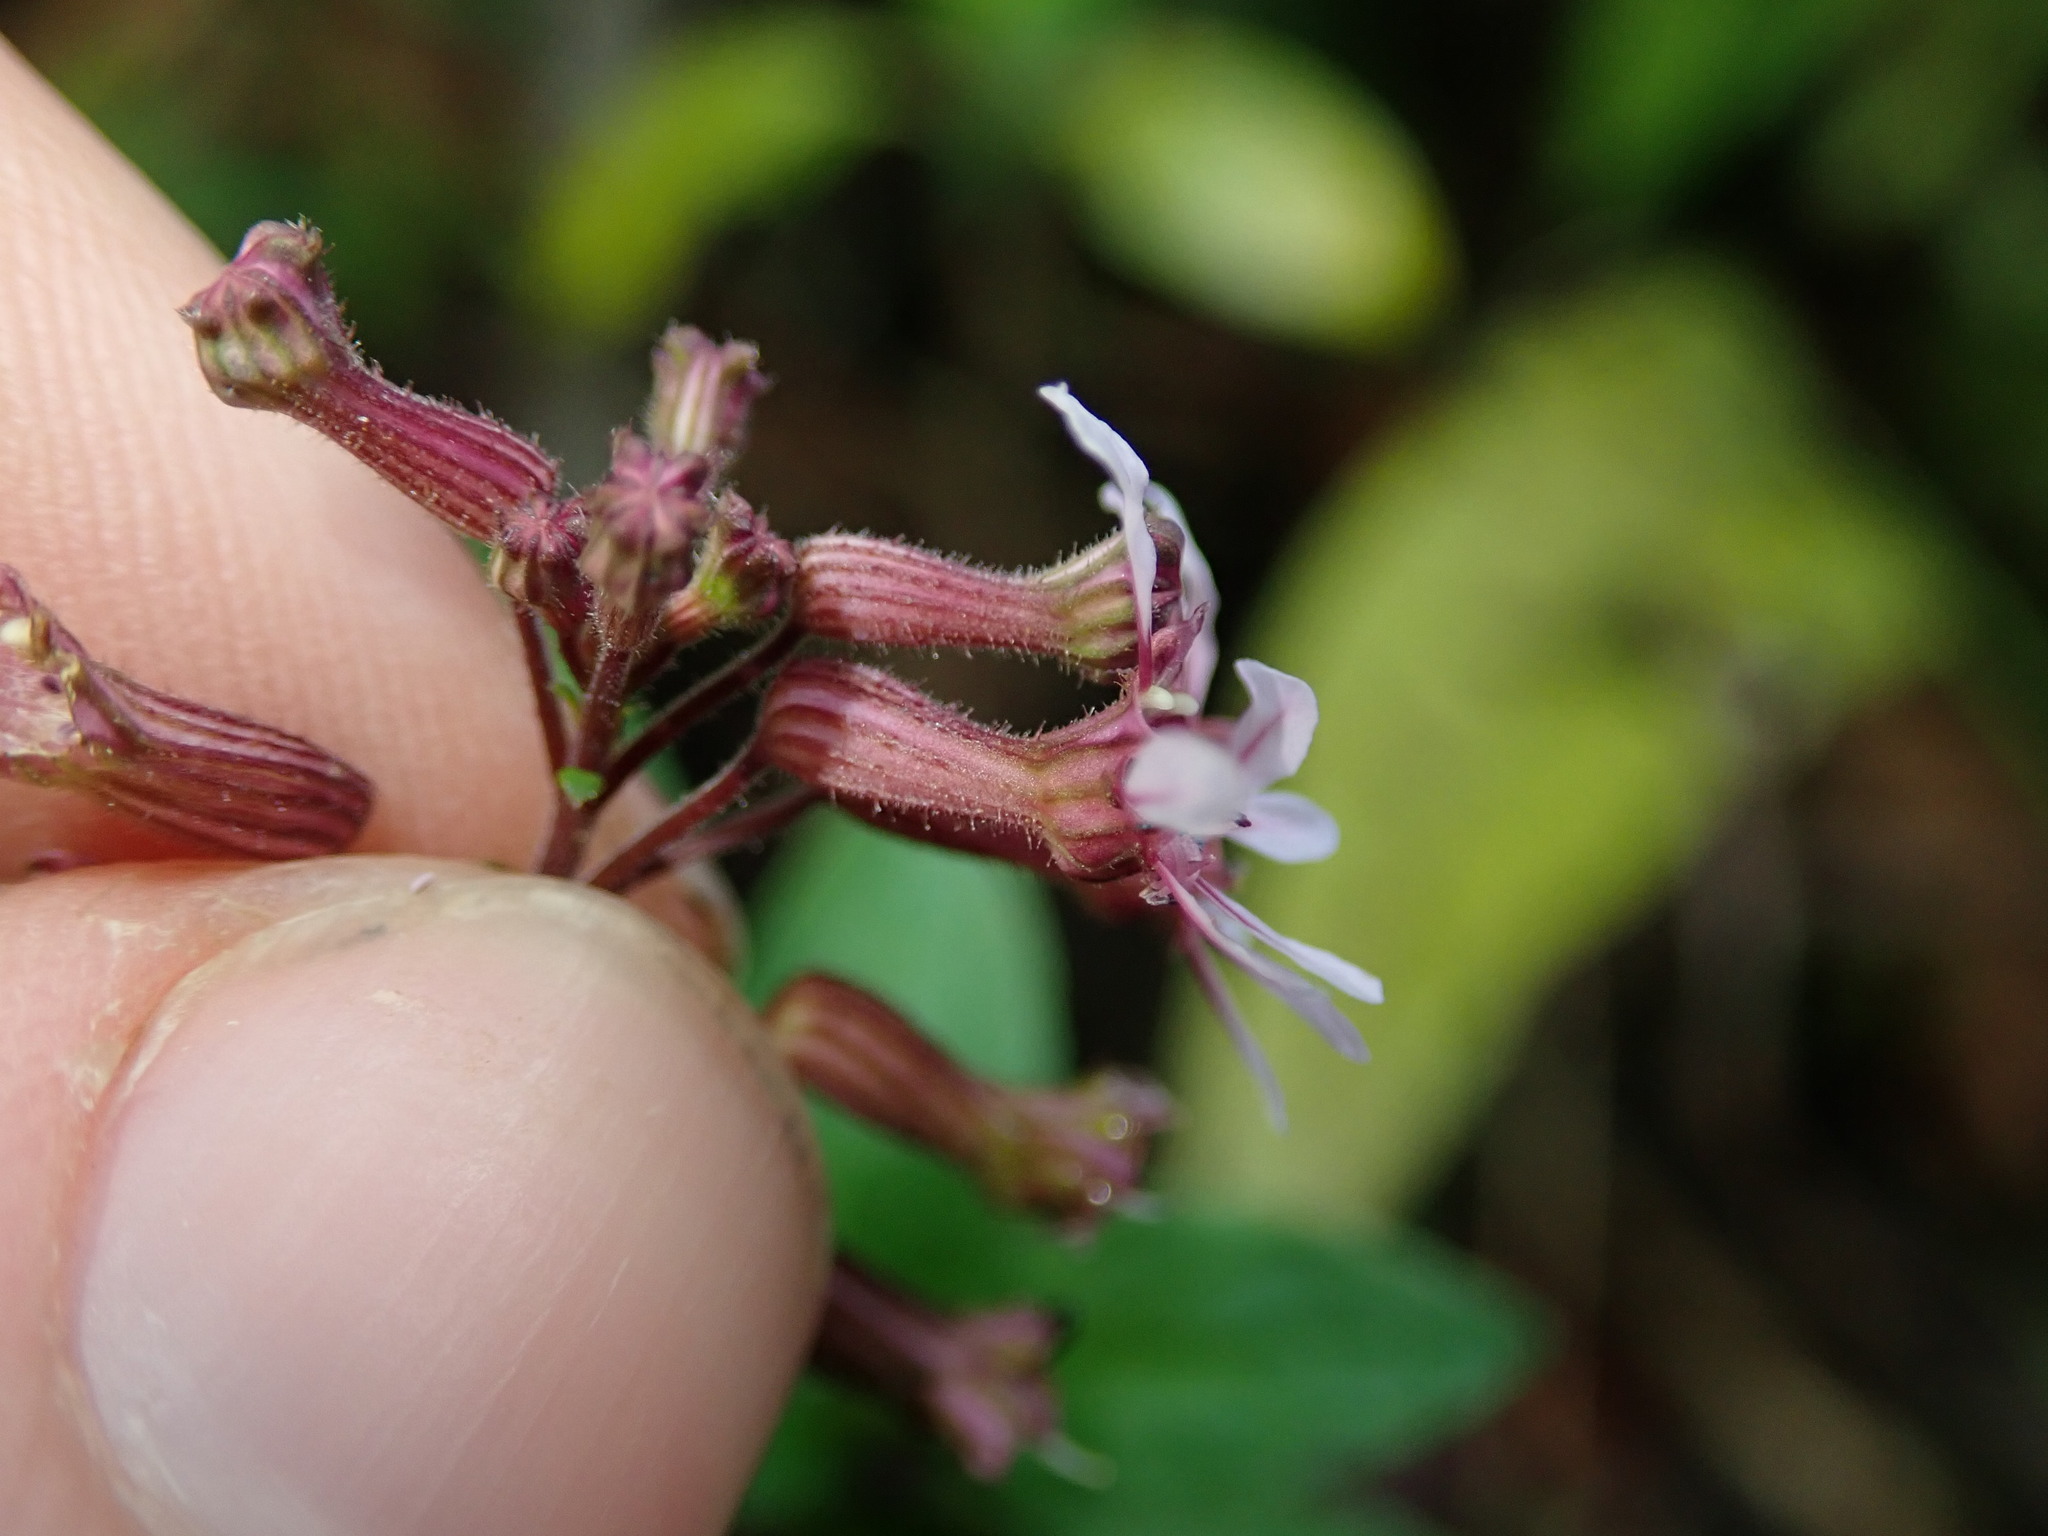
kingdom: Plantae
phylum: Tracheophyta
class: Magnoliopsida
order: Myrtales
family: Lythraceae
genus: Cuphea
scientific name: Cuphea racemosa
